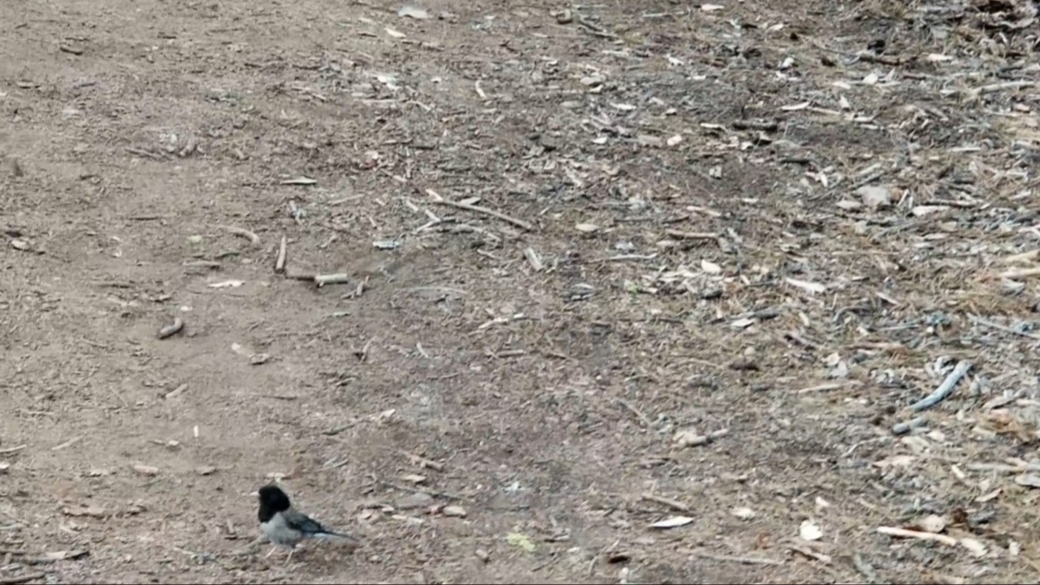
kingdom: Animalia
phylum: Chordata
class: Aves
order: Passeriformes
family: Passerellidae
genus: Junco
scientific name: Junco hyemalis
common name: Dark-eyed junco
